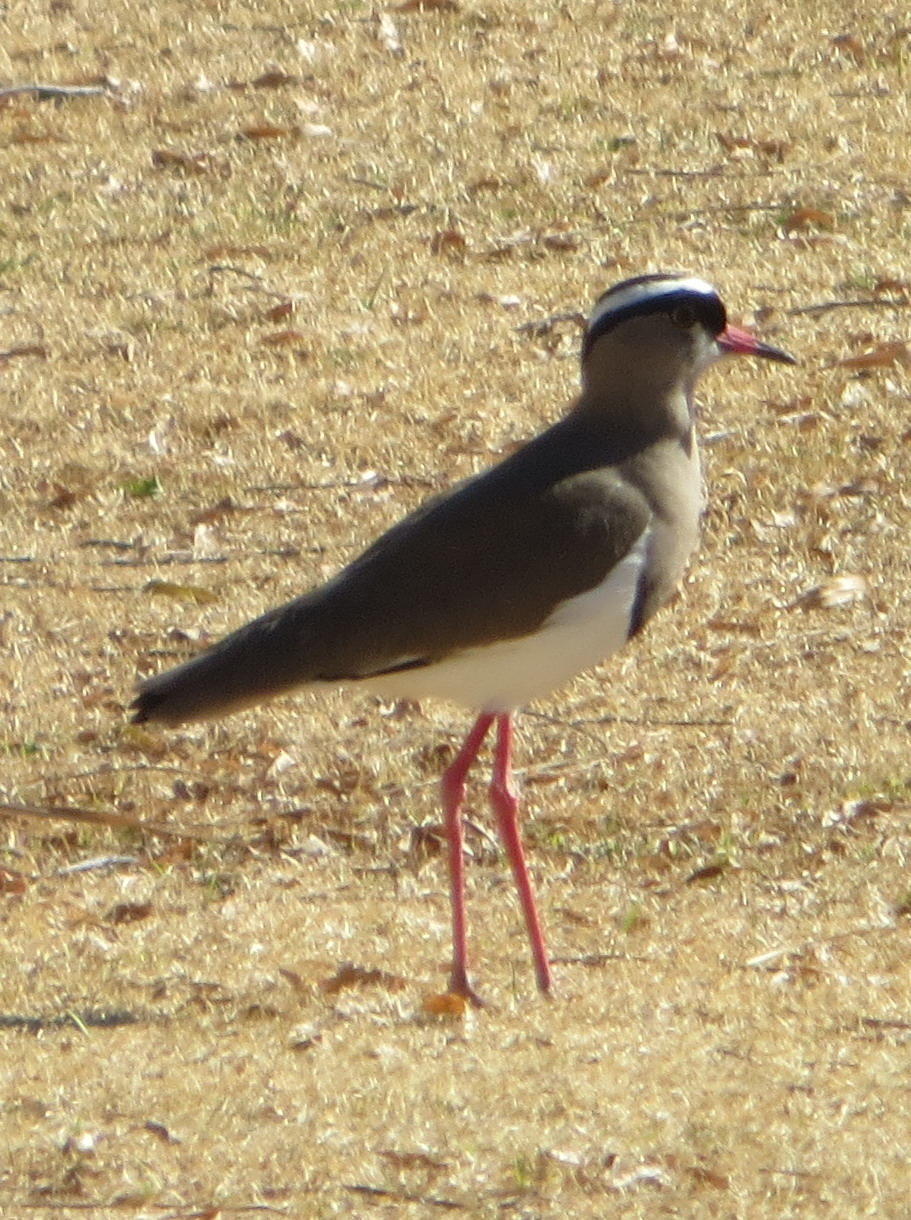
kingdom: Animalia
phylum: Chordata
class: Aves
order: Charadriiformes
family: Charadriidae
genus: Vanellus
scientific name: Vanellus coronatus
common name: Crowned lapwing
